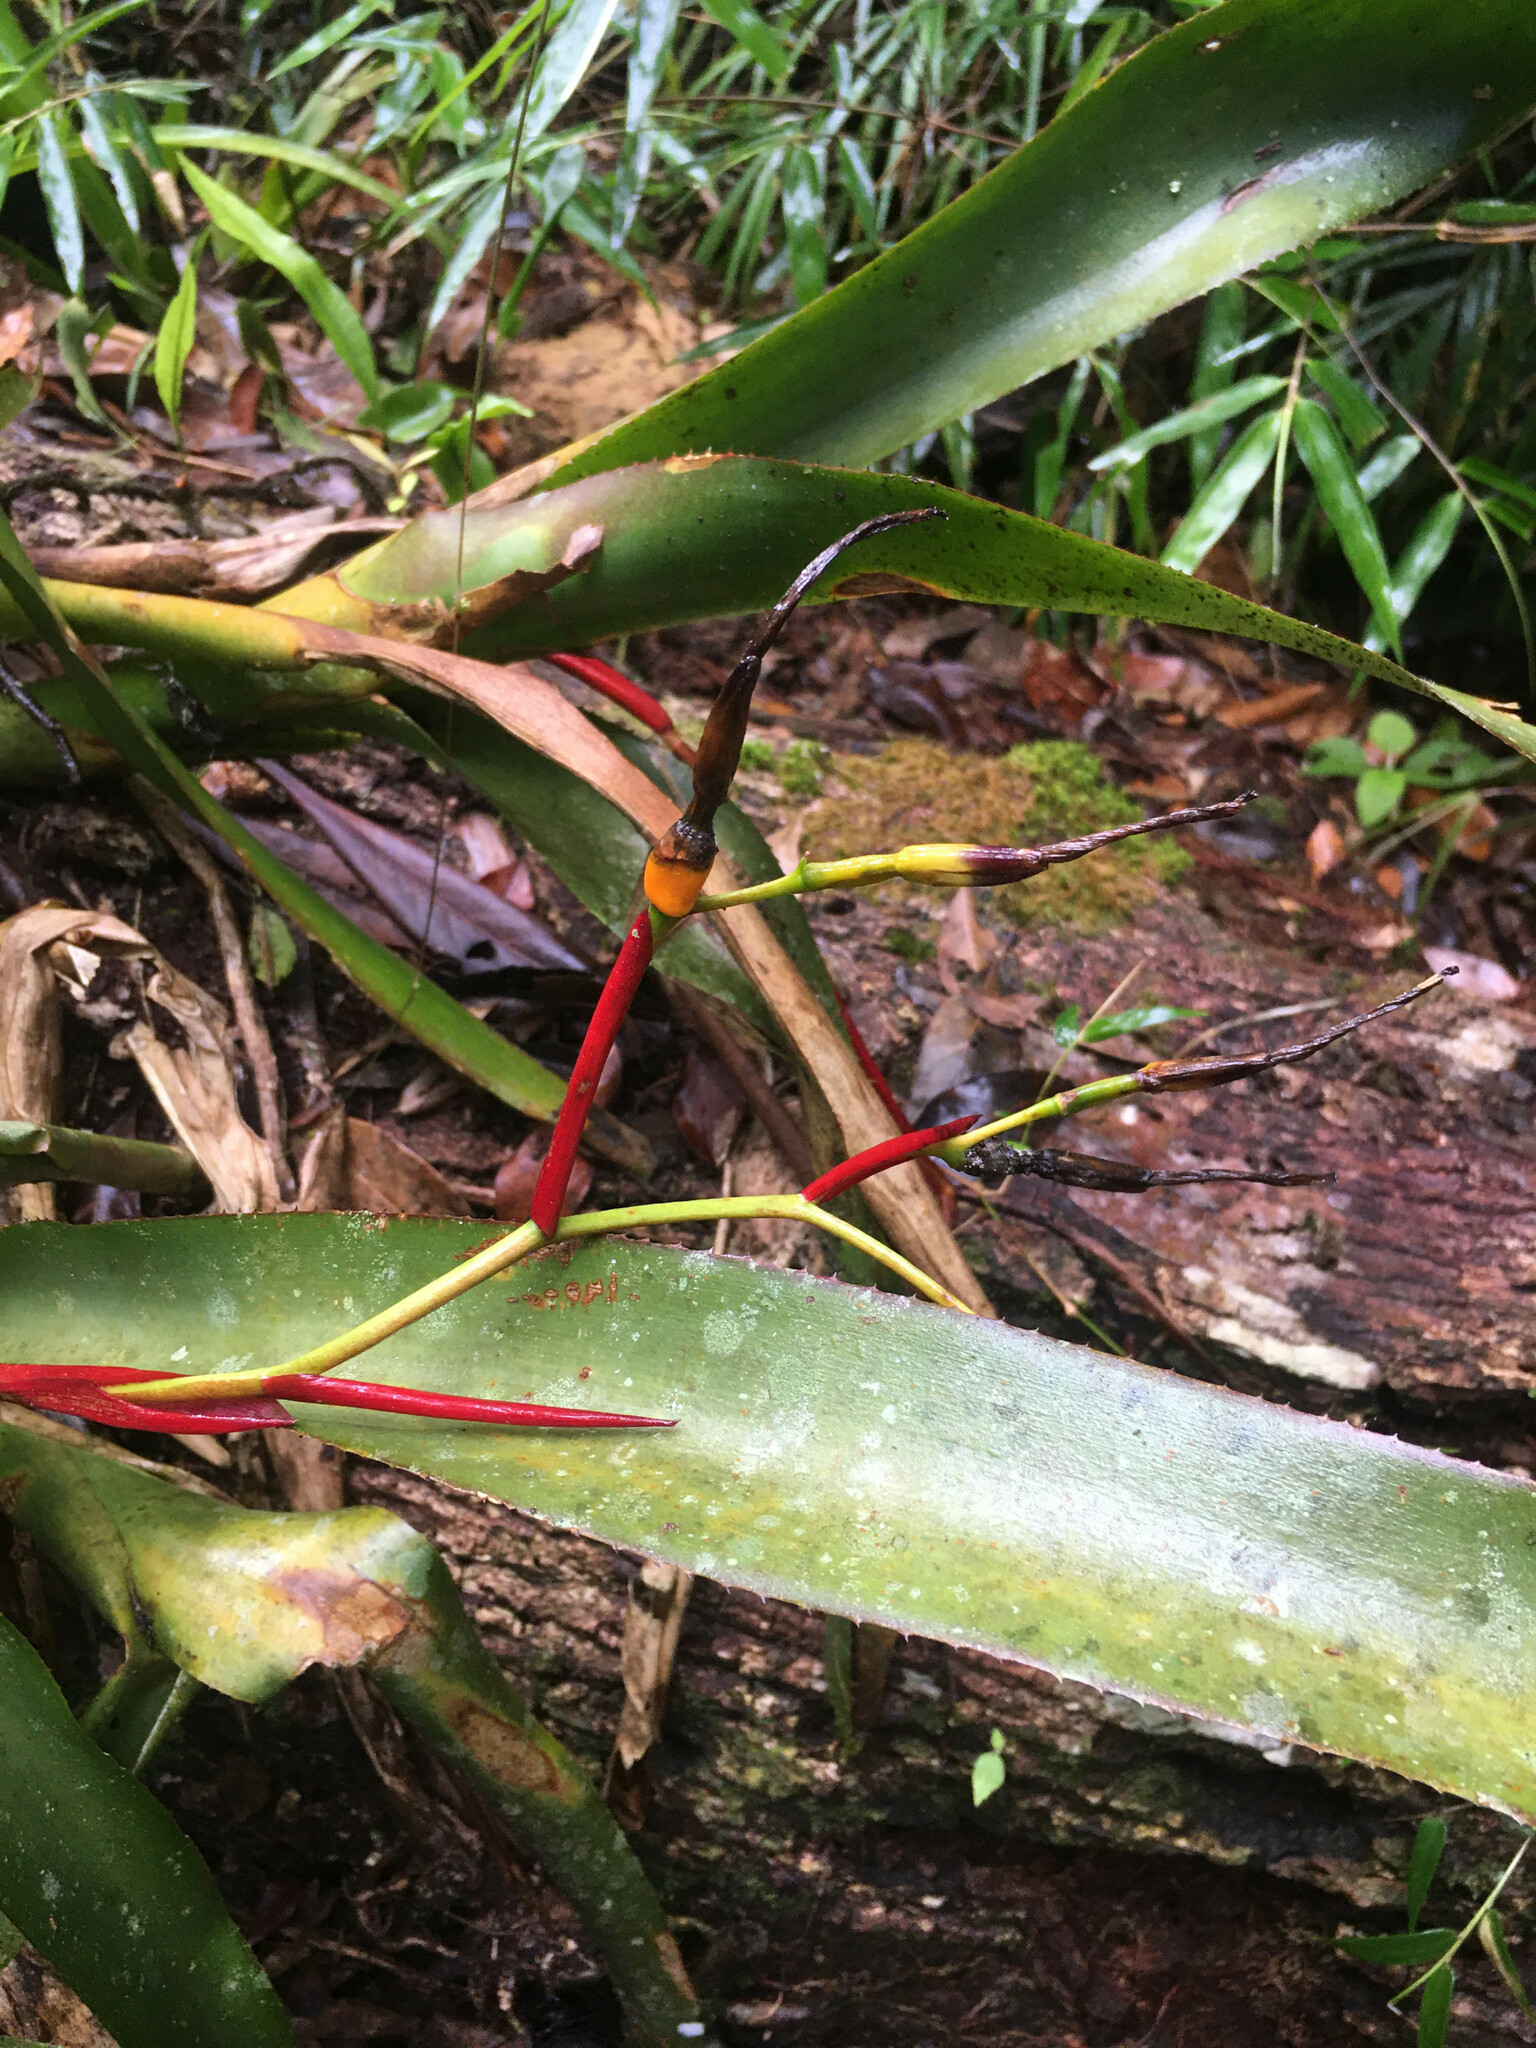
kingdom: Plantae
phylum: Tracheophyta
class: Liliopsida
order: Poales
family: Bromeliaceae
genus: Billbergia
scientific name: Billbergia bradeana
